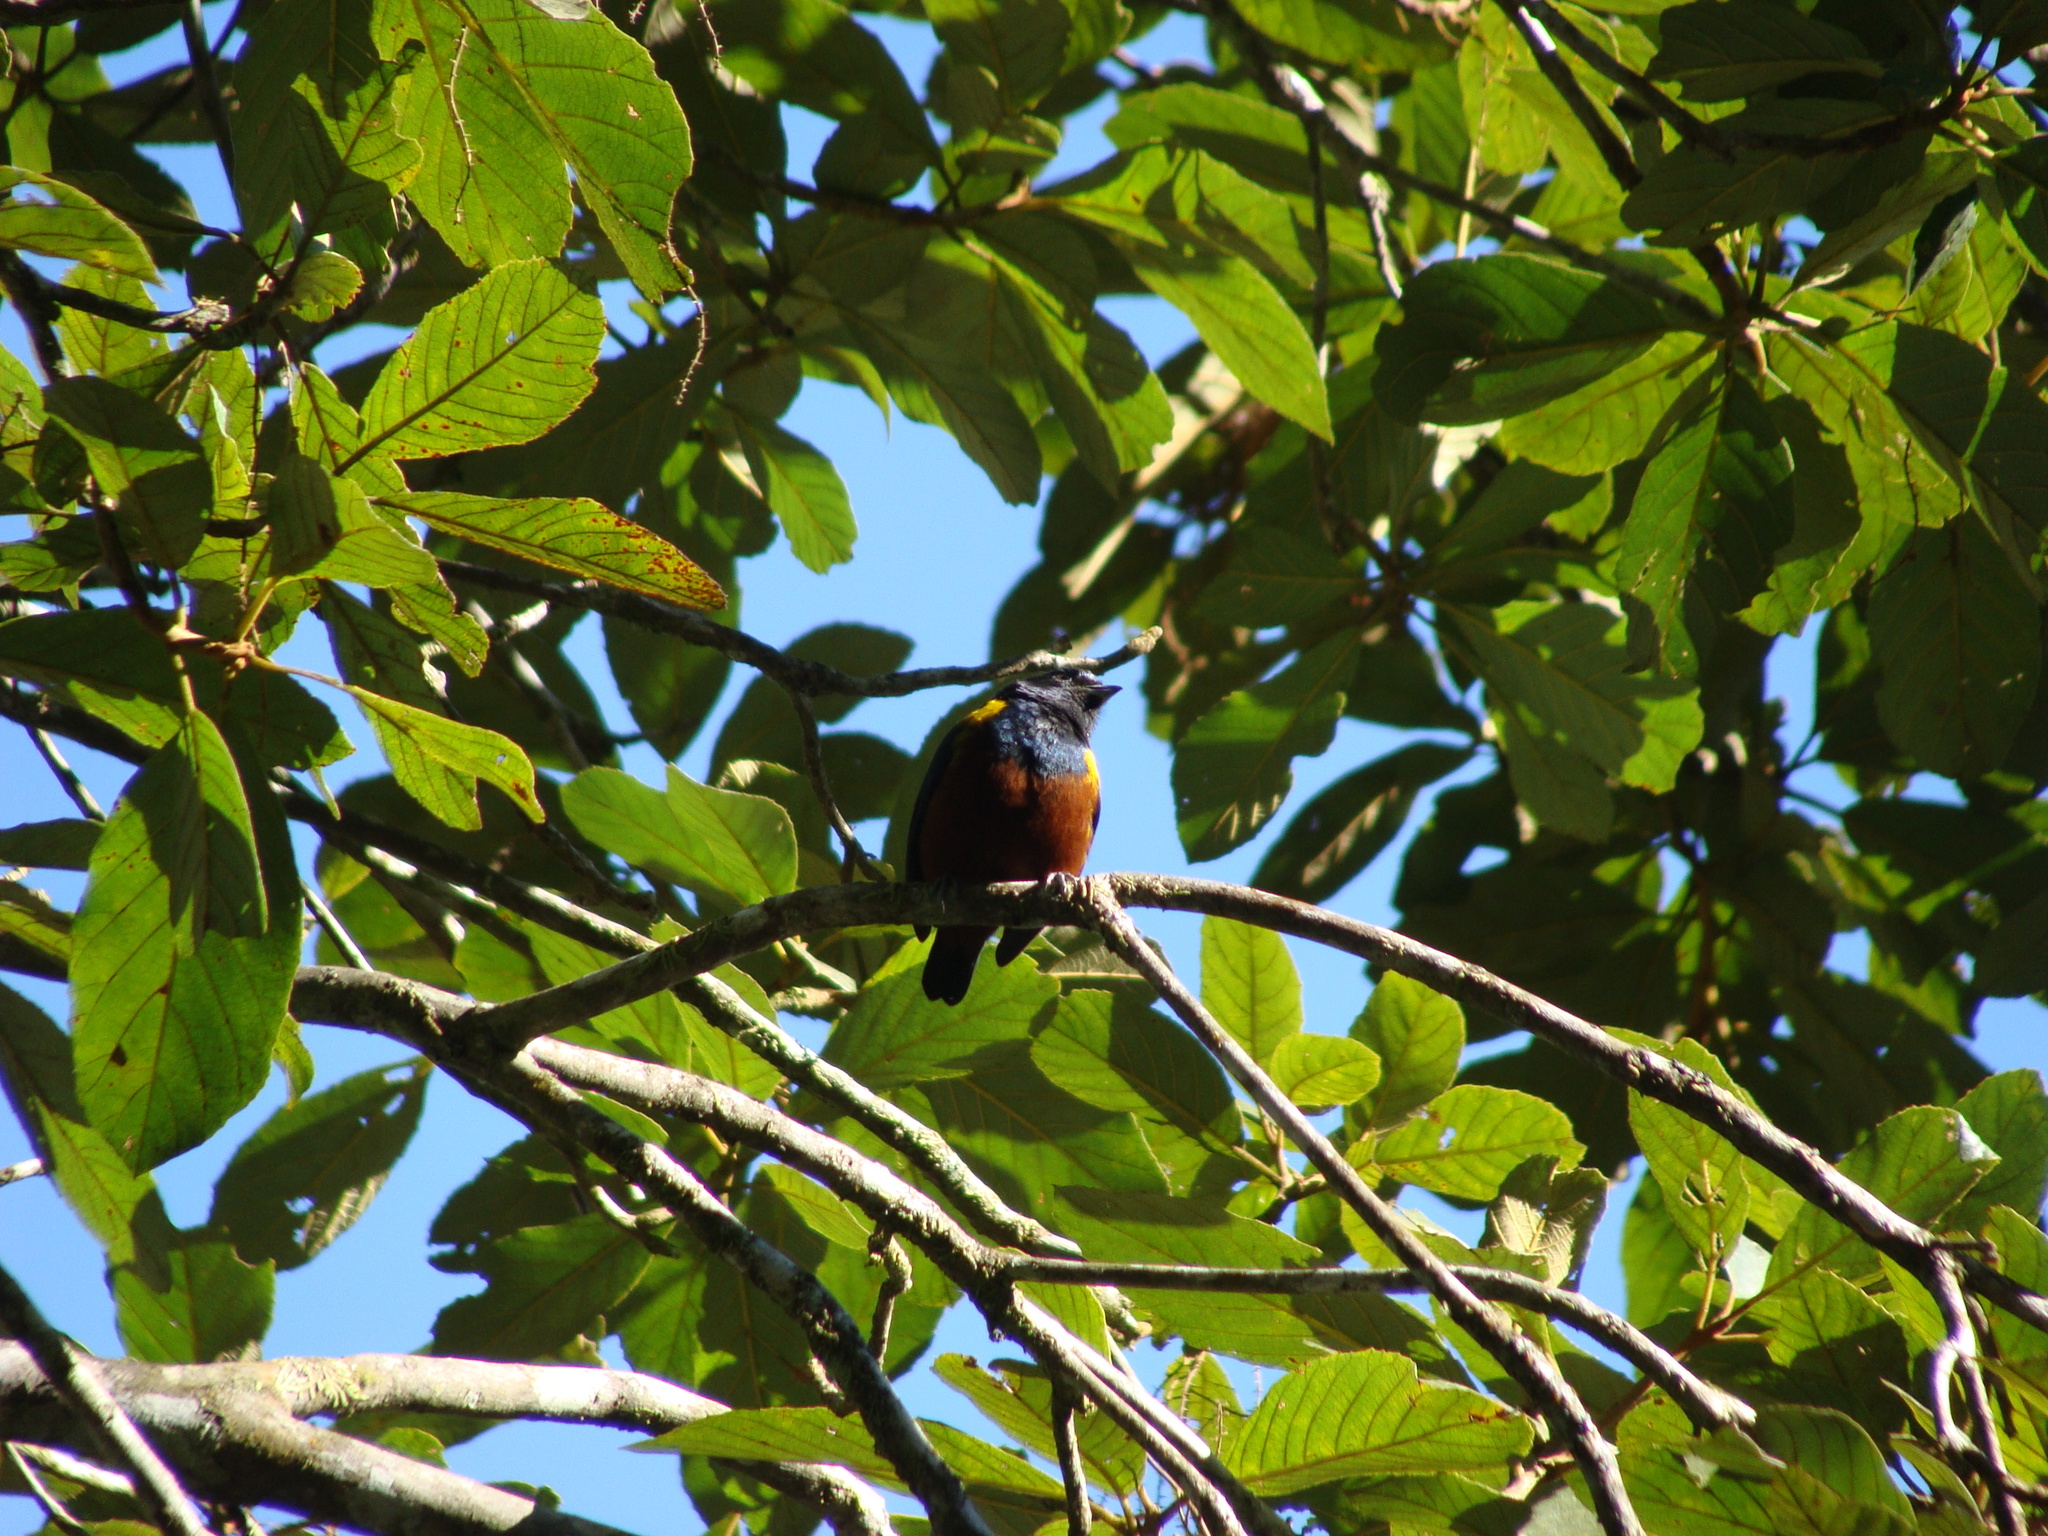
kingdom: Animalia
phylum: Chordata
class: Aves
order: Passeriformes
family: Fringillidae
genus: Euphonia
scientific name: Euphonia pectoralis
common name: Chestnut-bellied euphonia
